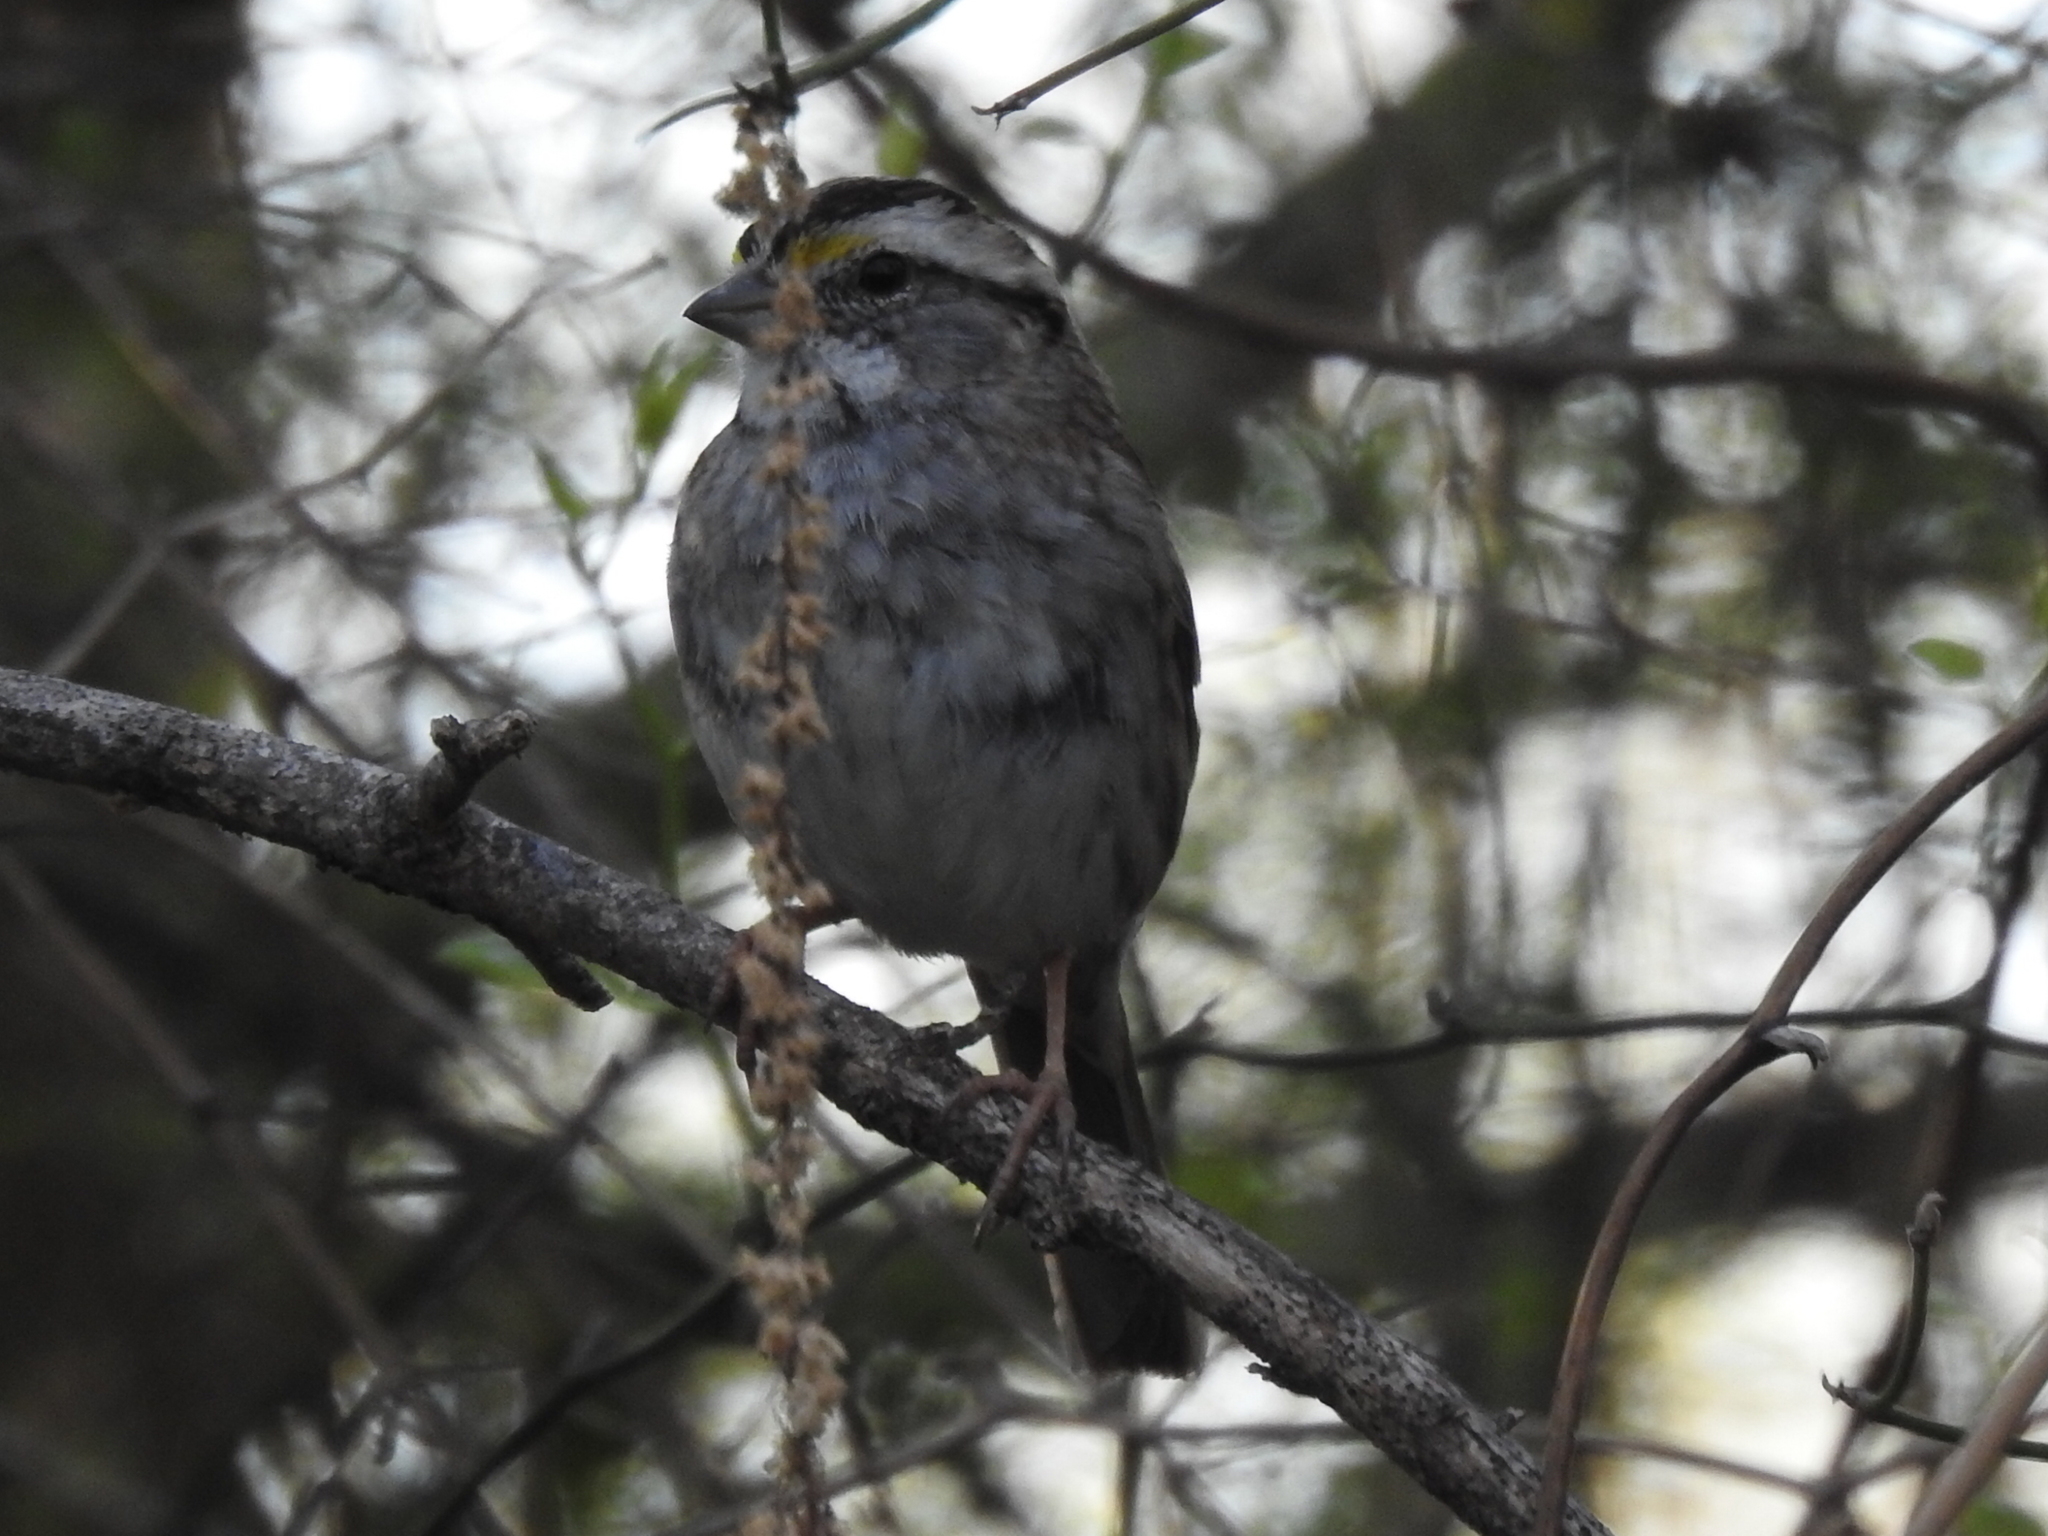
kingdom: Animalia
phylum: Chordata
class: Aves
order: Passeriformes
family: Passerellidae
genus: Zonotrichia
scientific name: Zonotrichia albicollis
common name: White-throated sparrow
